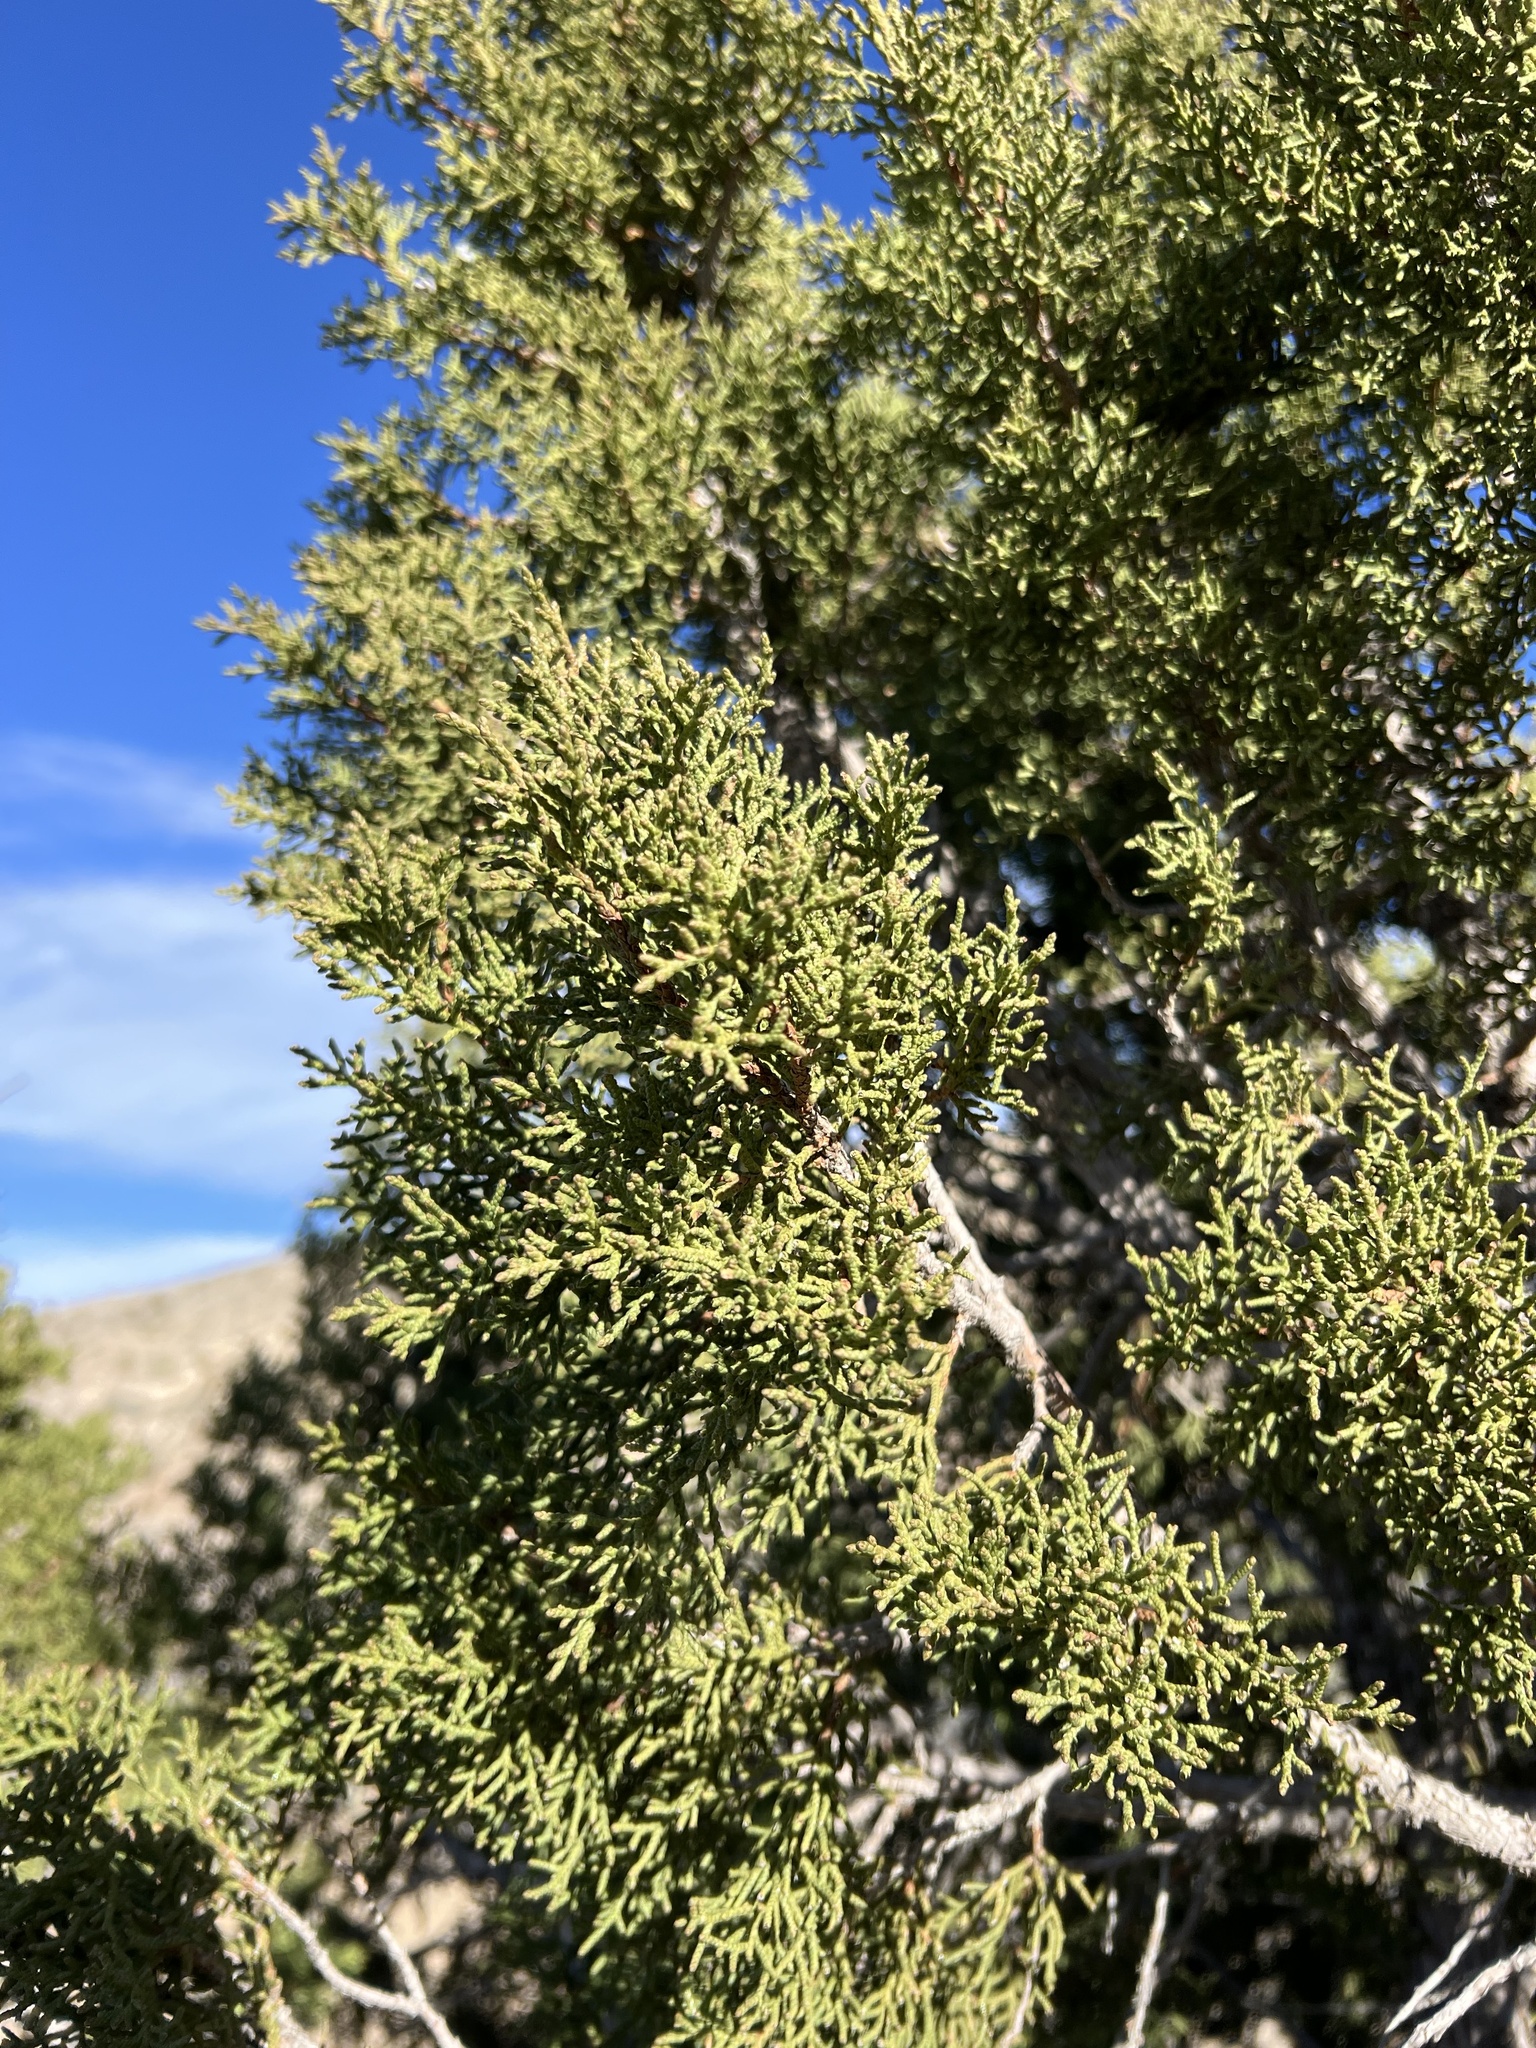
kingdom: Plantae
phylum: Tracheophyta
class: Pinopsida
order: Pinales
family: Cupressaceae
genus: Juniperus
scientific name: Juniperus osteosperma
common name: Utah juniper
